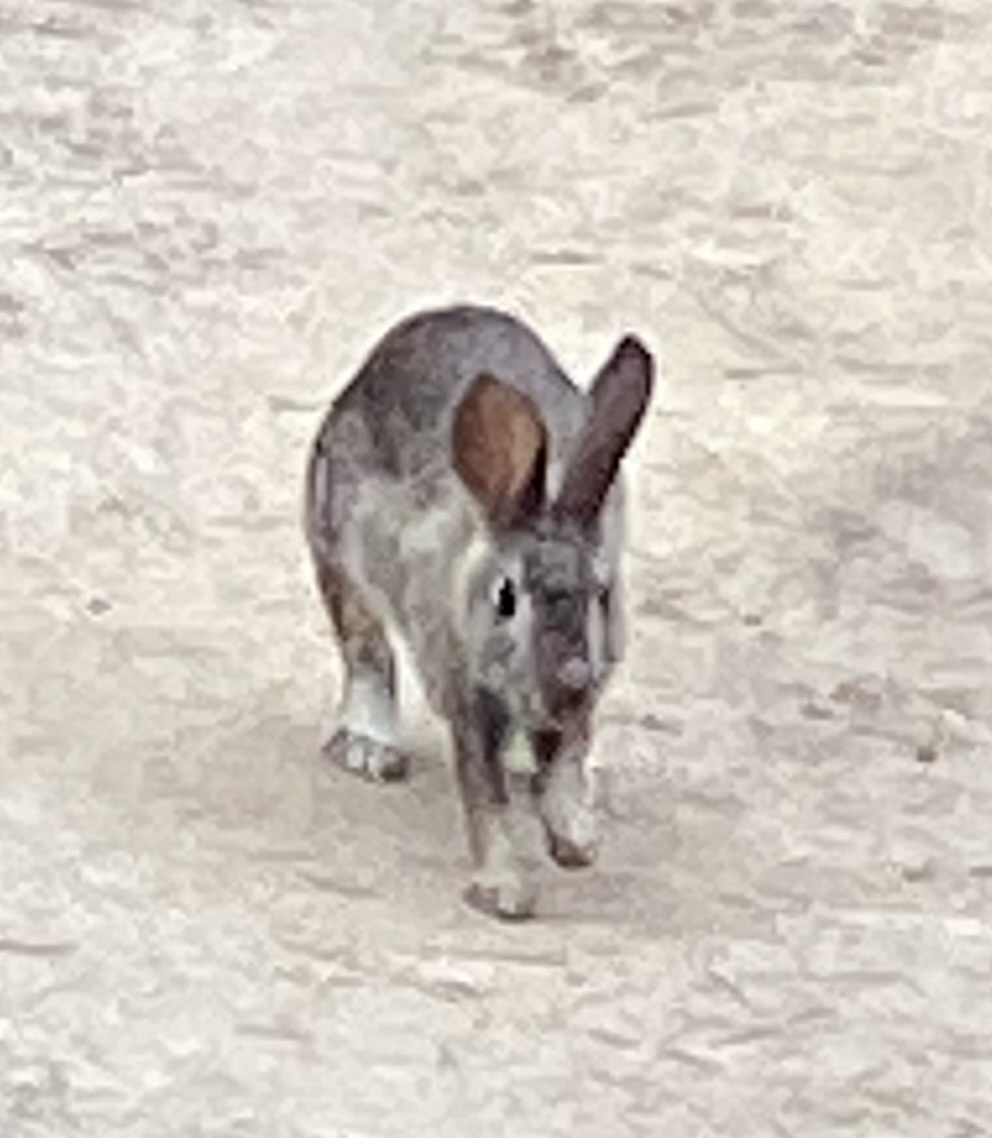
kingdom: Animalia
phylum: Chordata
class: Mammalia
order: Lagomorpha
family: Leporidae
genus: Sylvilagus
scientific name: Sylvilagus bachmani
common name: Brush rabbit
